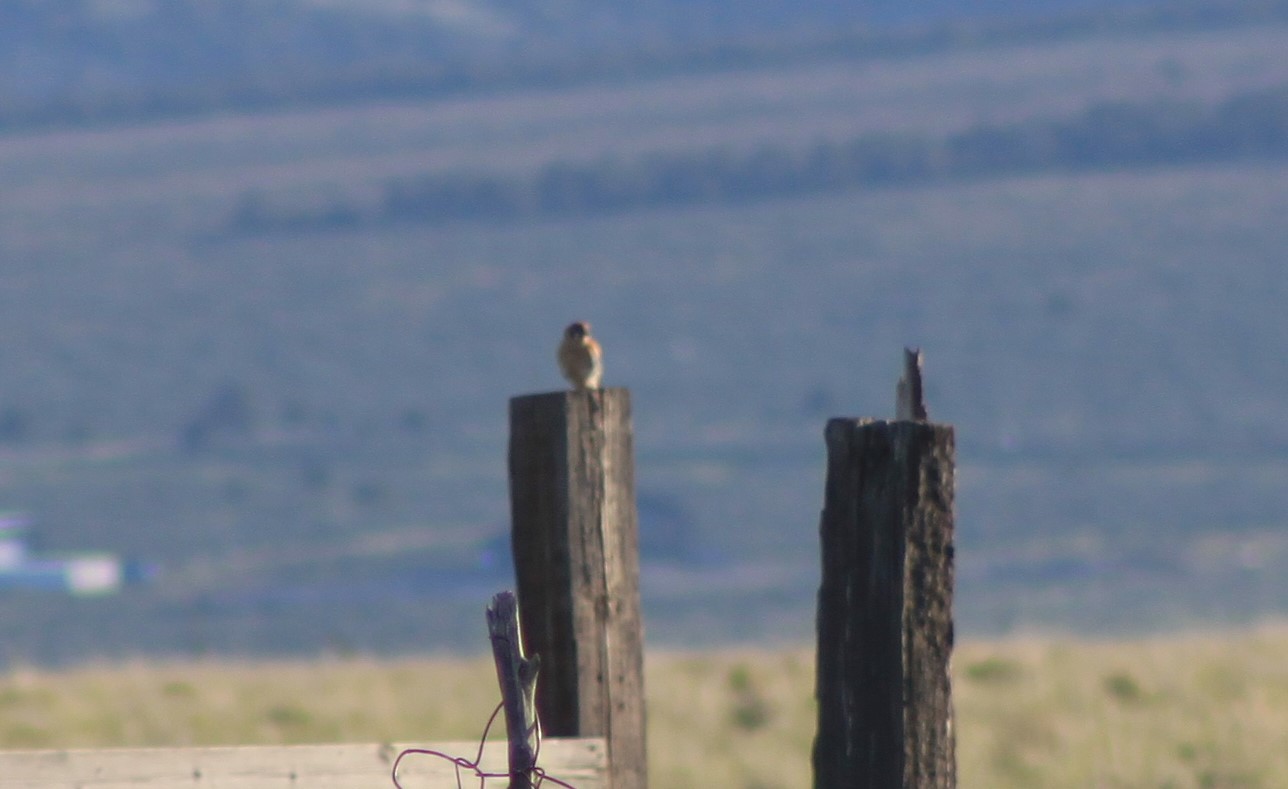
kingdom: Animalia
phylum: Chordata
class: Aves
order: Falconiformes
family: Falconidae
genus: Falco
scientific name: Falco sparverius
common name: American kestrel
